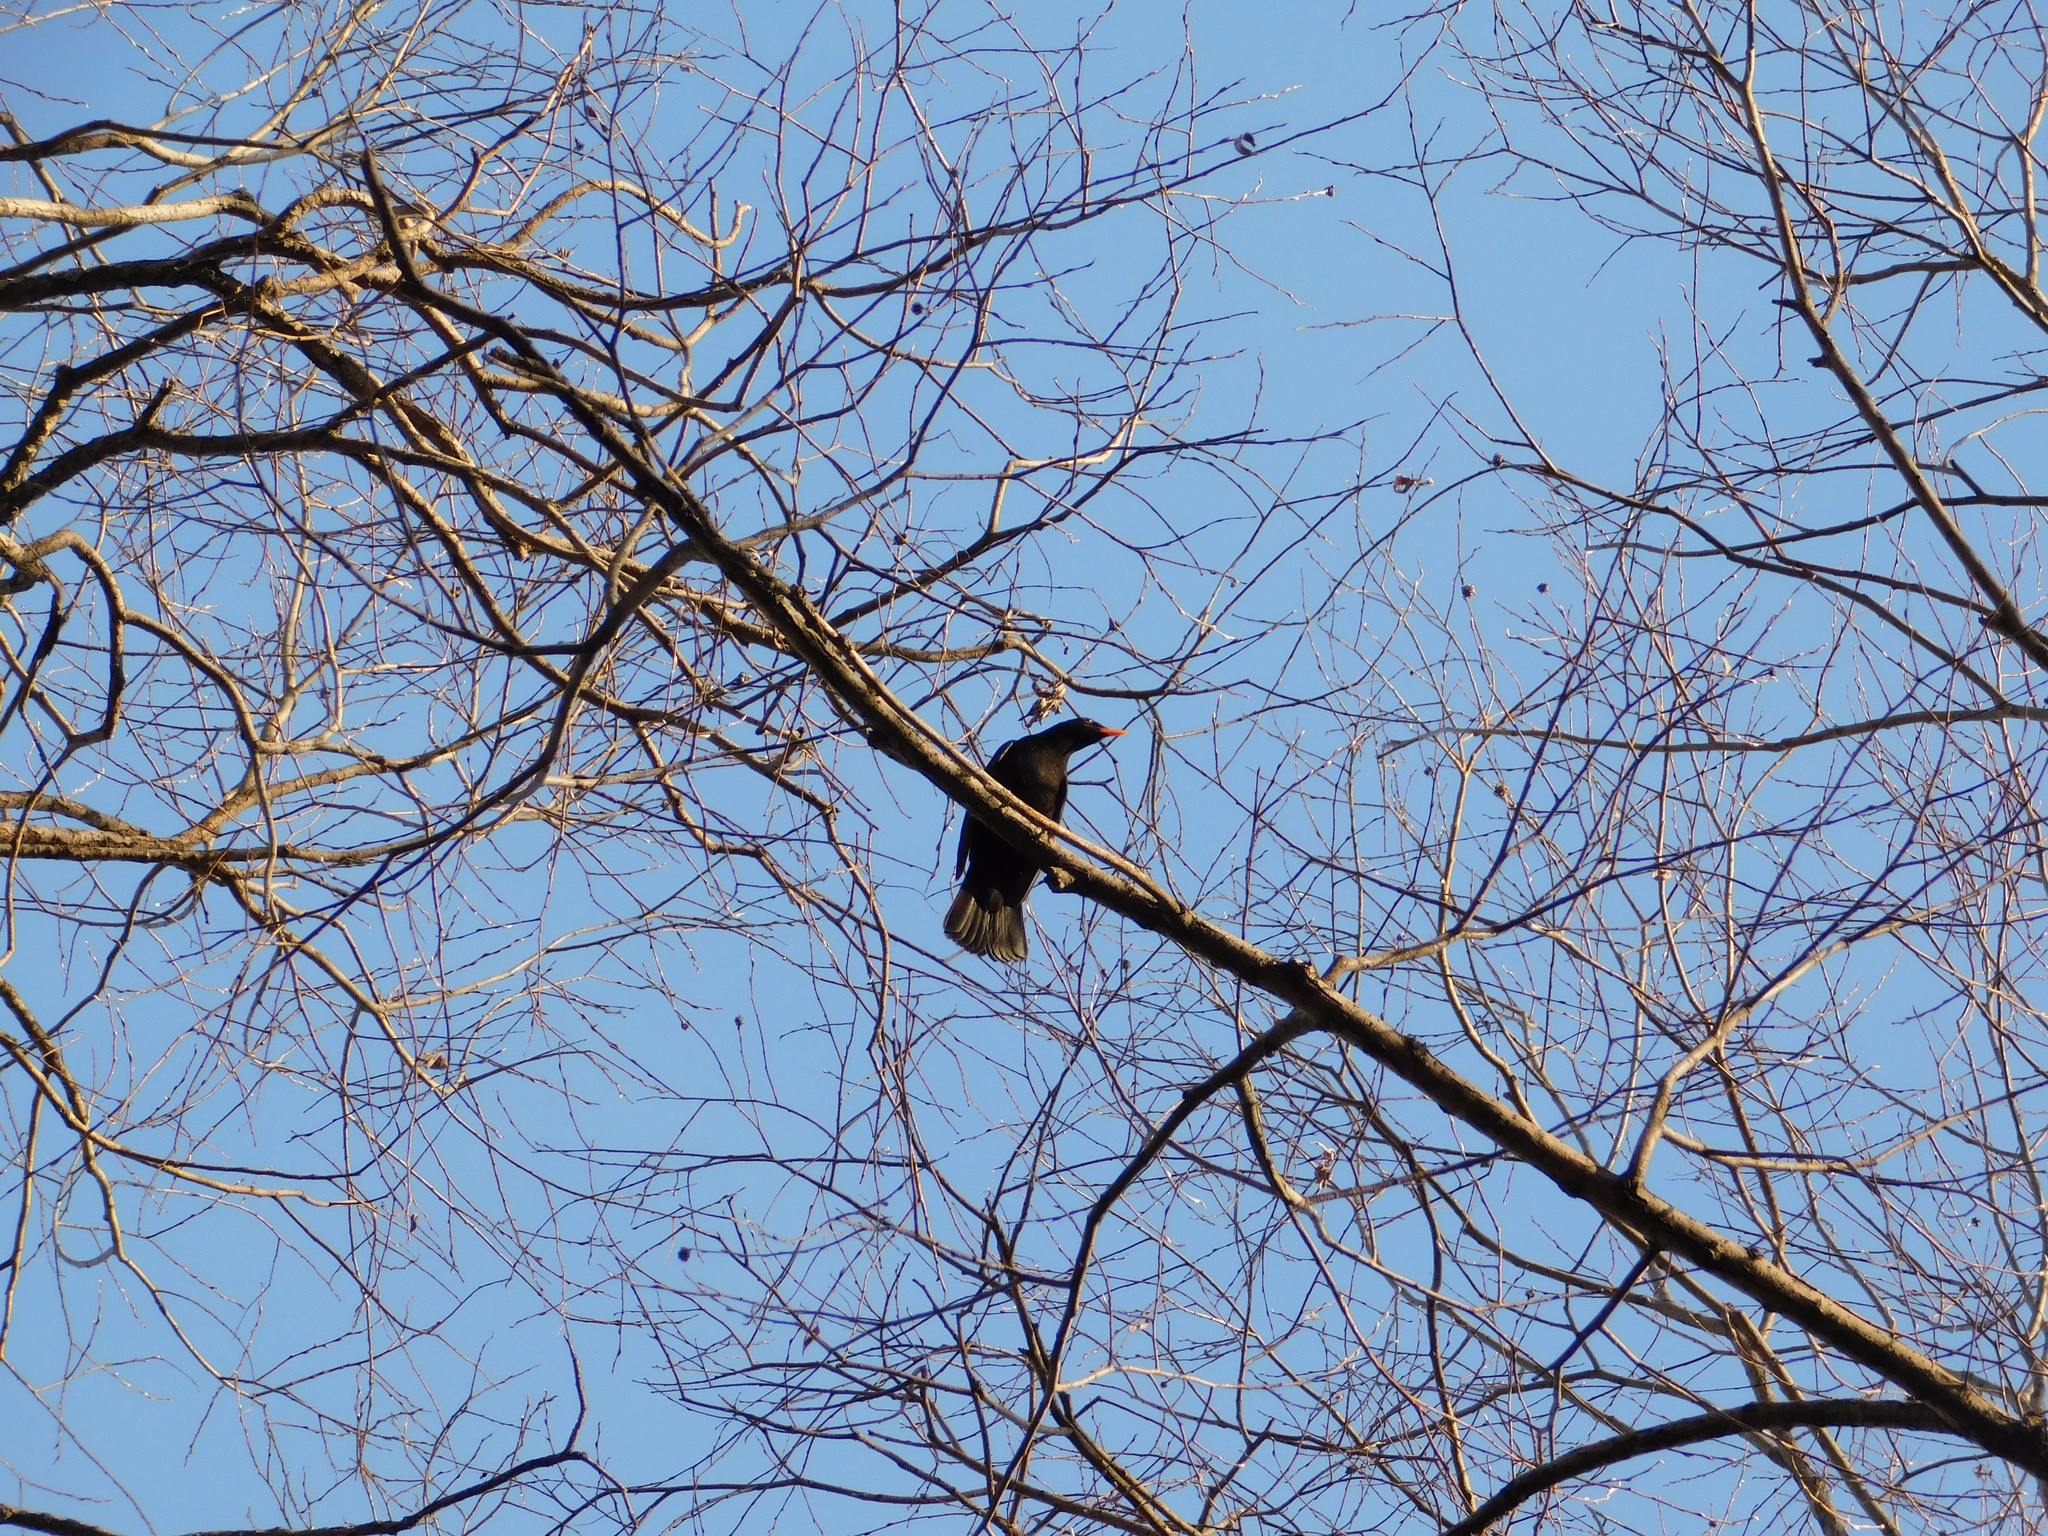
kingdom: Animalia
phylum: Chordata
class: Aves
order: Passeriformes
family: Turdidae
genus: Turdus
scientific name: Turdus merula
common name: Common blackbird
